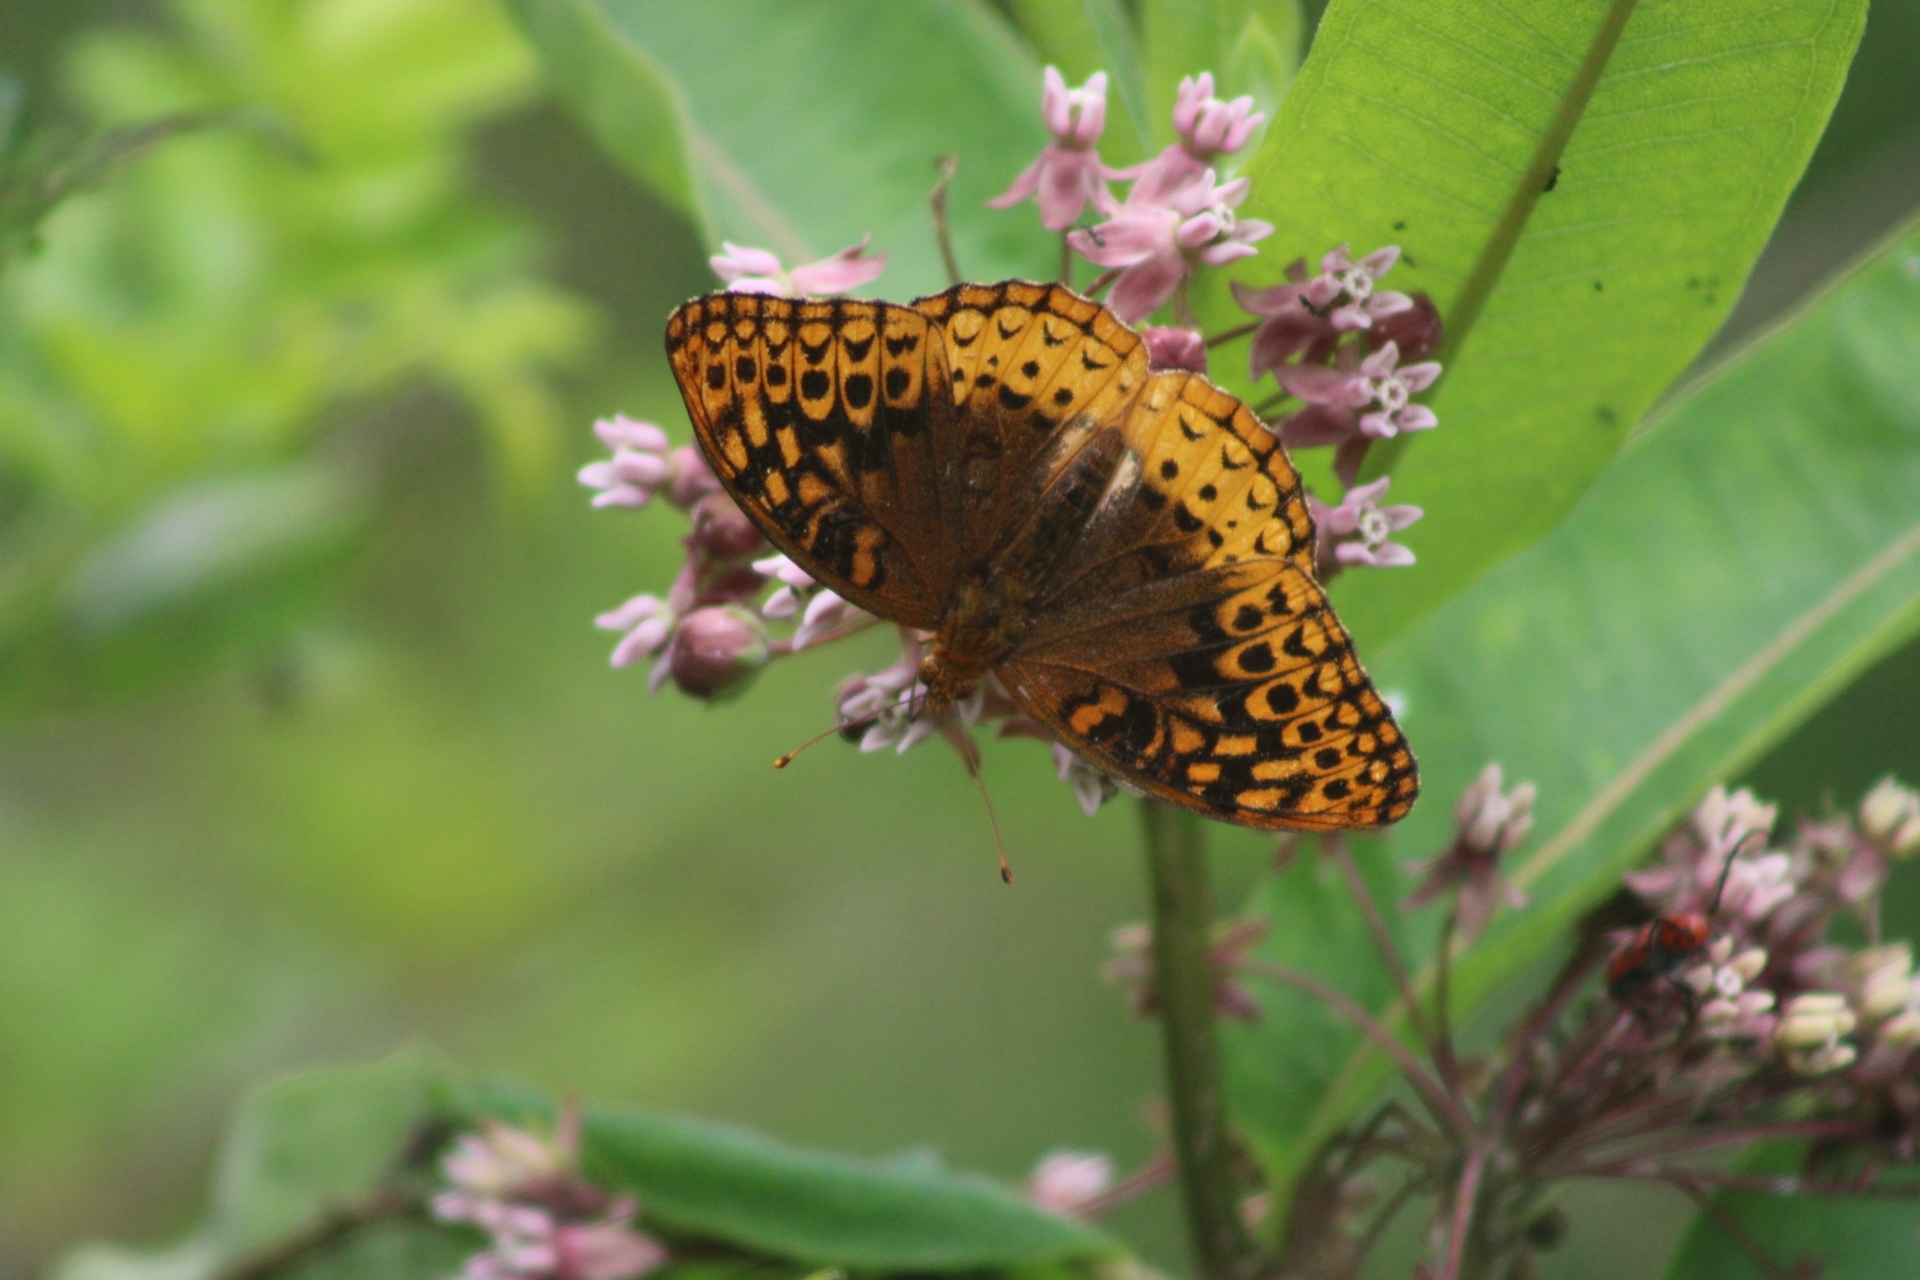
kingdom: Animalia
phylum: Arthropoda
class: Insecta
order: Lepidoptera
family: Nymphalidae
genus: Speyeria
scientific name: Speyeria cybele
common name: Great spangled fritillary
